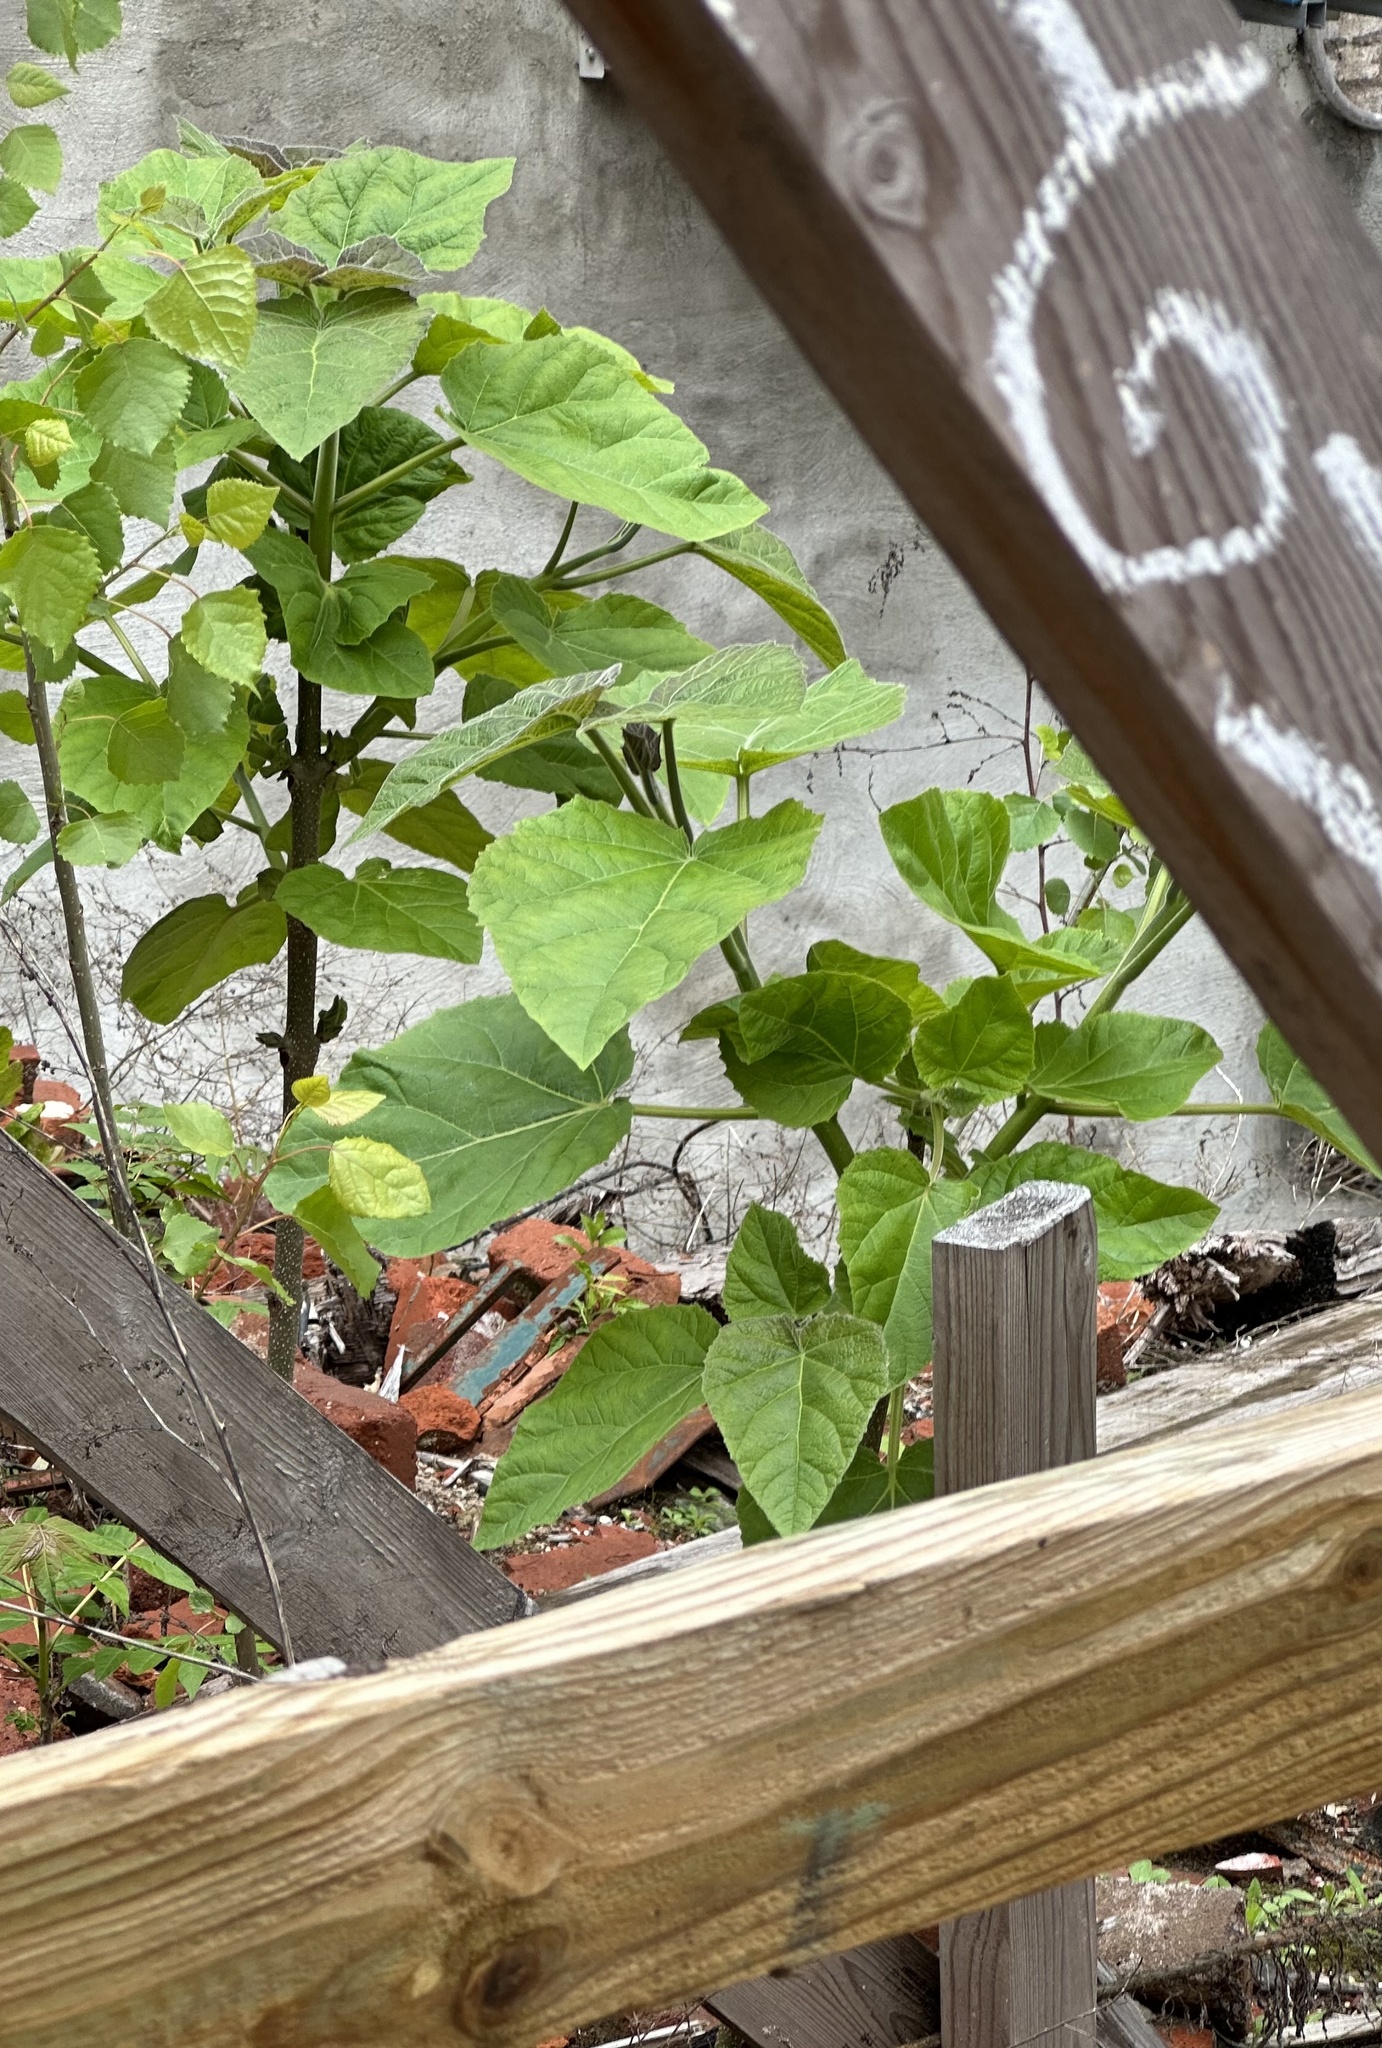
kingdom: Plantae
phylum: Tracheophyta
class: Magnoliopsida
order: Lamiales
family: Paulowniaceae
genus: Paulownia
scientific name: Paulownia tomentosa
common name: Foxglove-tree
